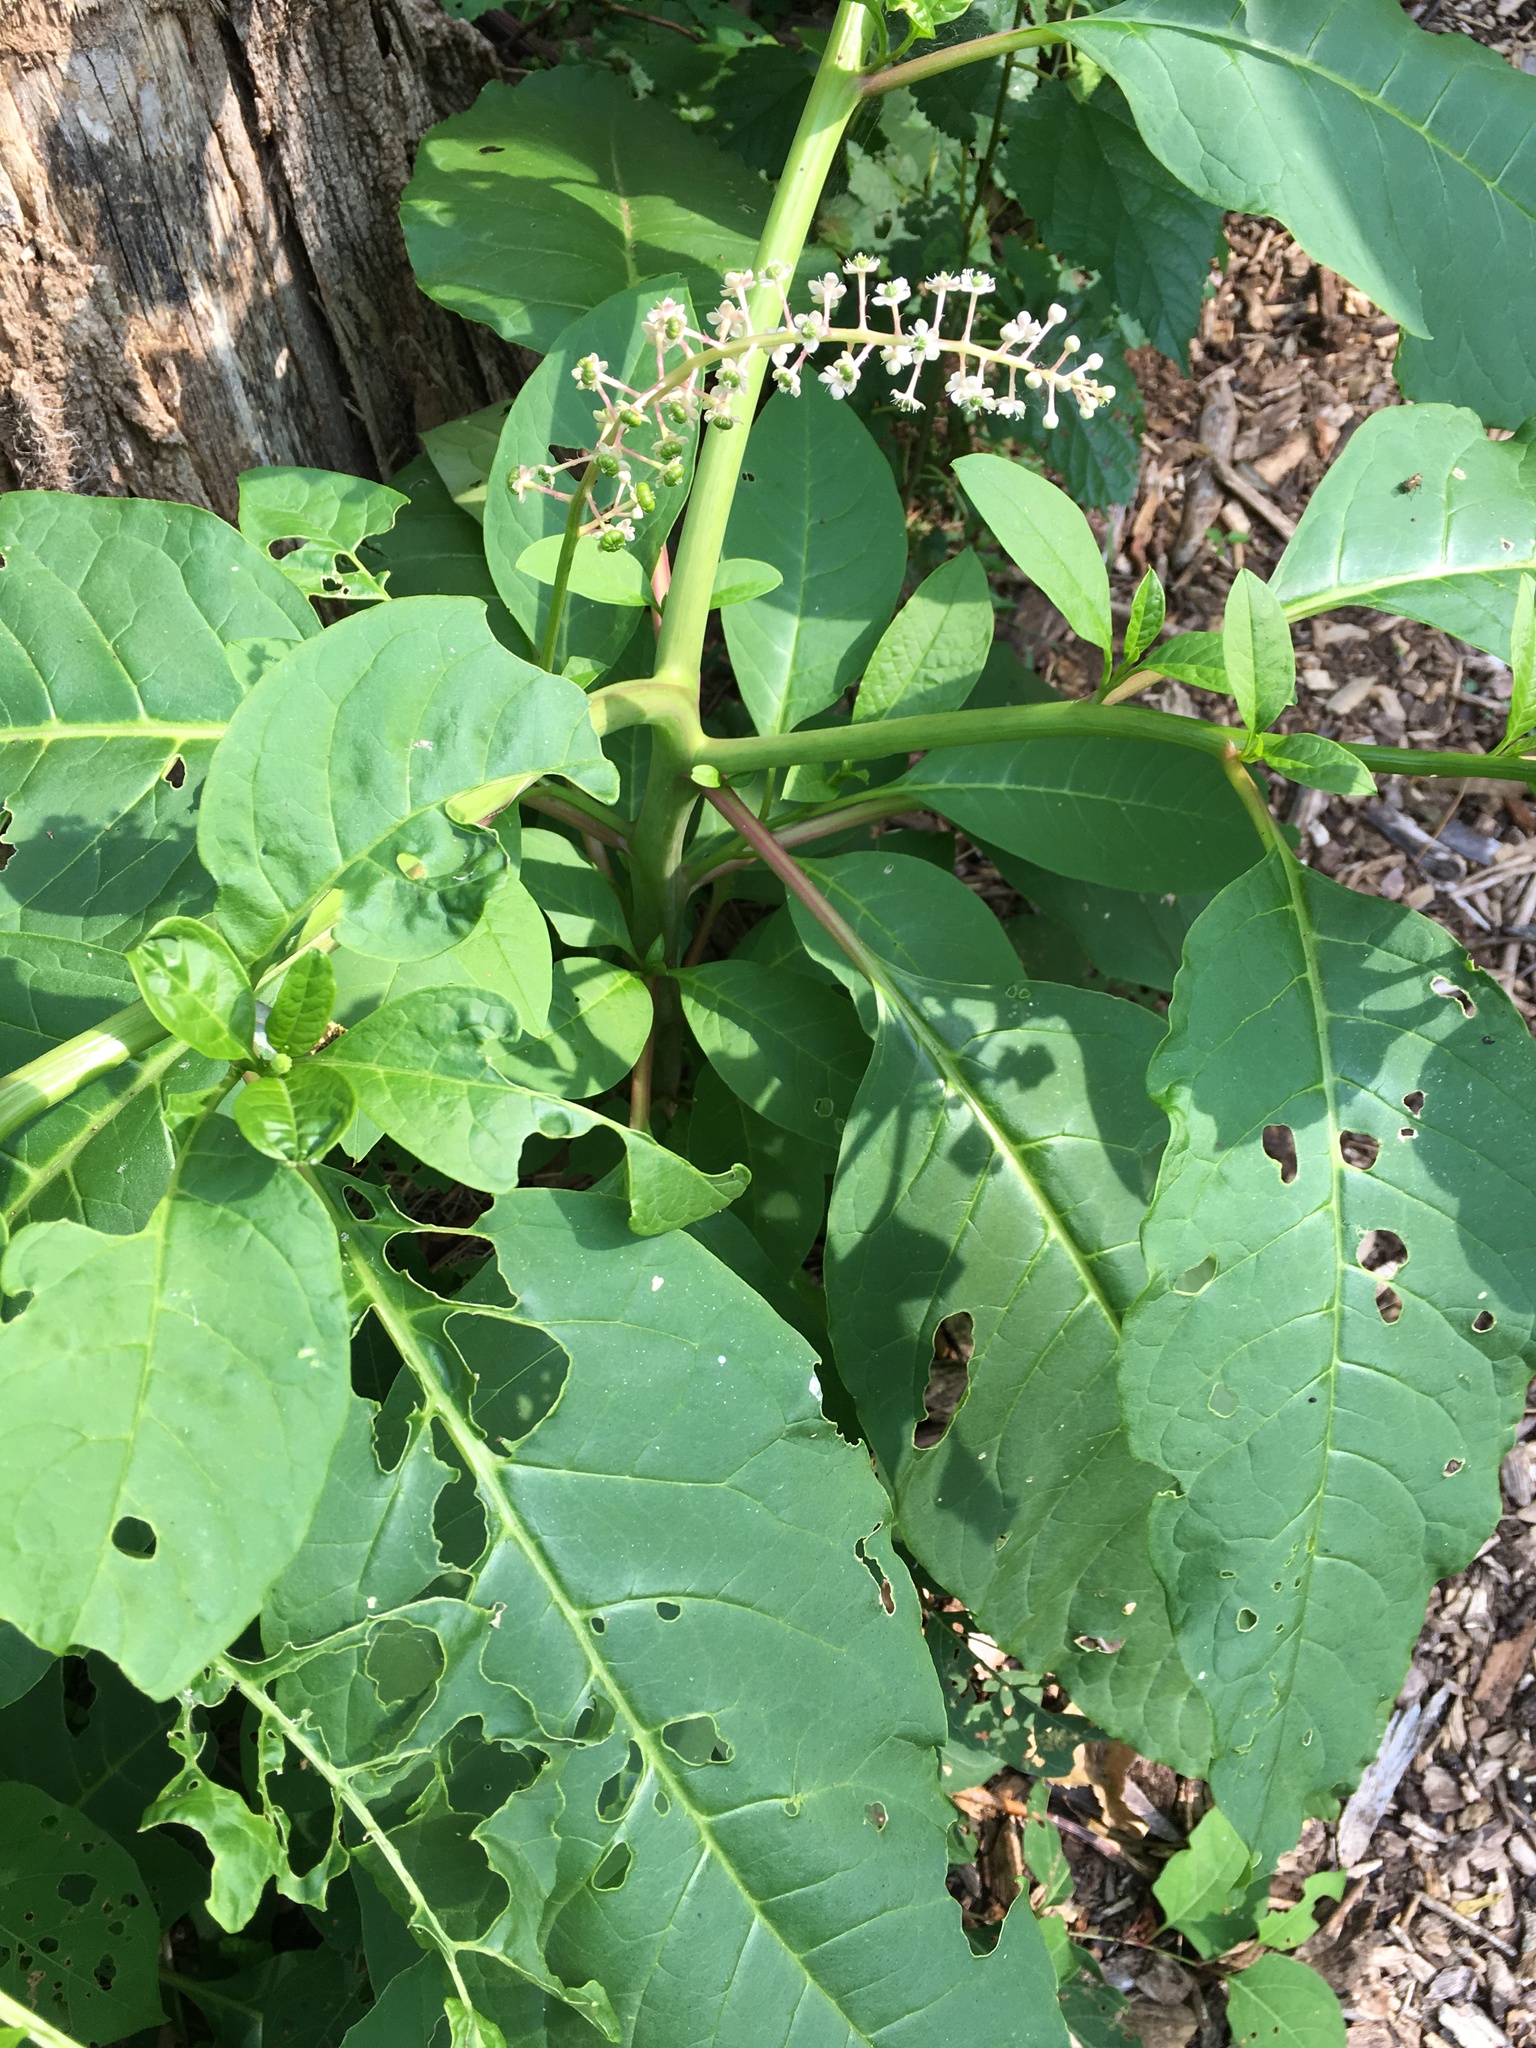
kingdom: Plantae
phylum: Tracheophyta
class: Magnoliopsida
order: Caryophyllales
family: Phytolaccaceae
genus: Phytolacca
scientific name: Phytolacca americana
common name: American pokeweed
